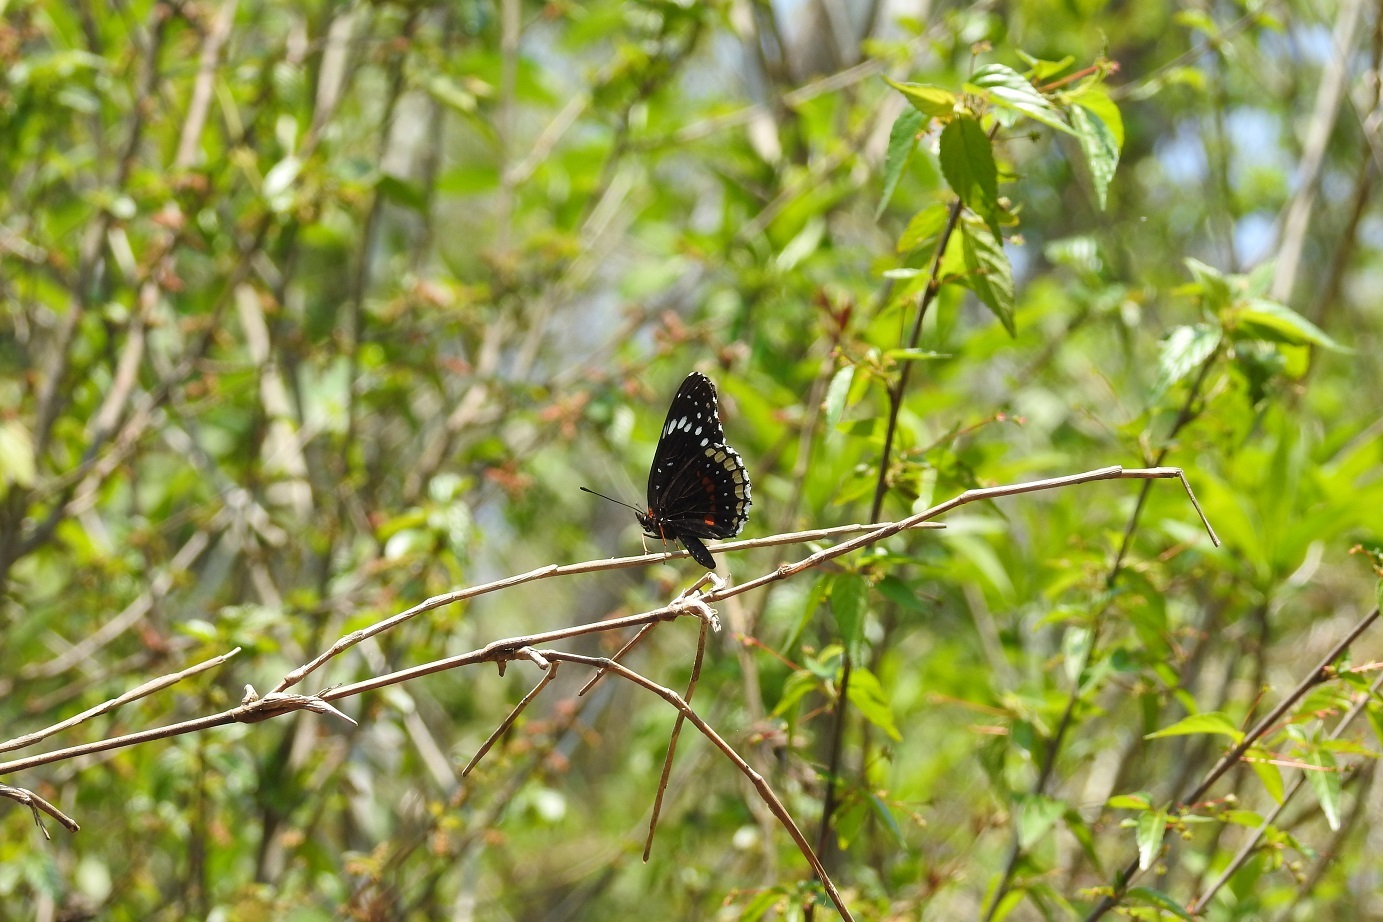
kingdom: Animalia
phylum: Arthropoda
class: Insecta
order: Lepidoptera
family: Nymphalidae
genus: Chlosyne
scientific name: Chlosyne hippodrome
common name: Simple patch
